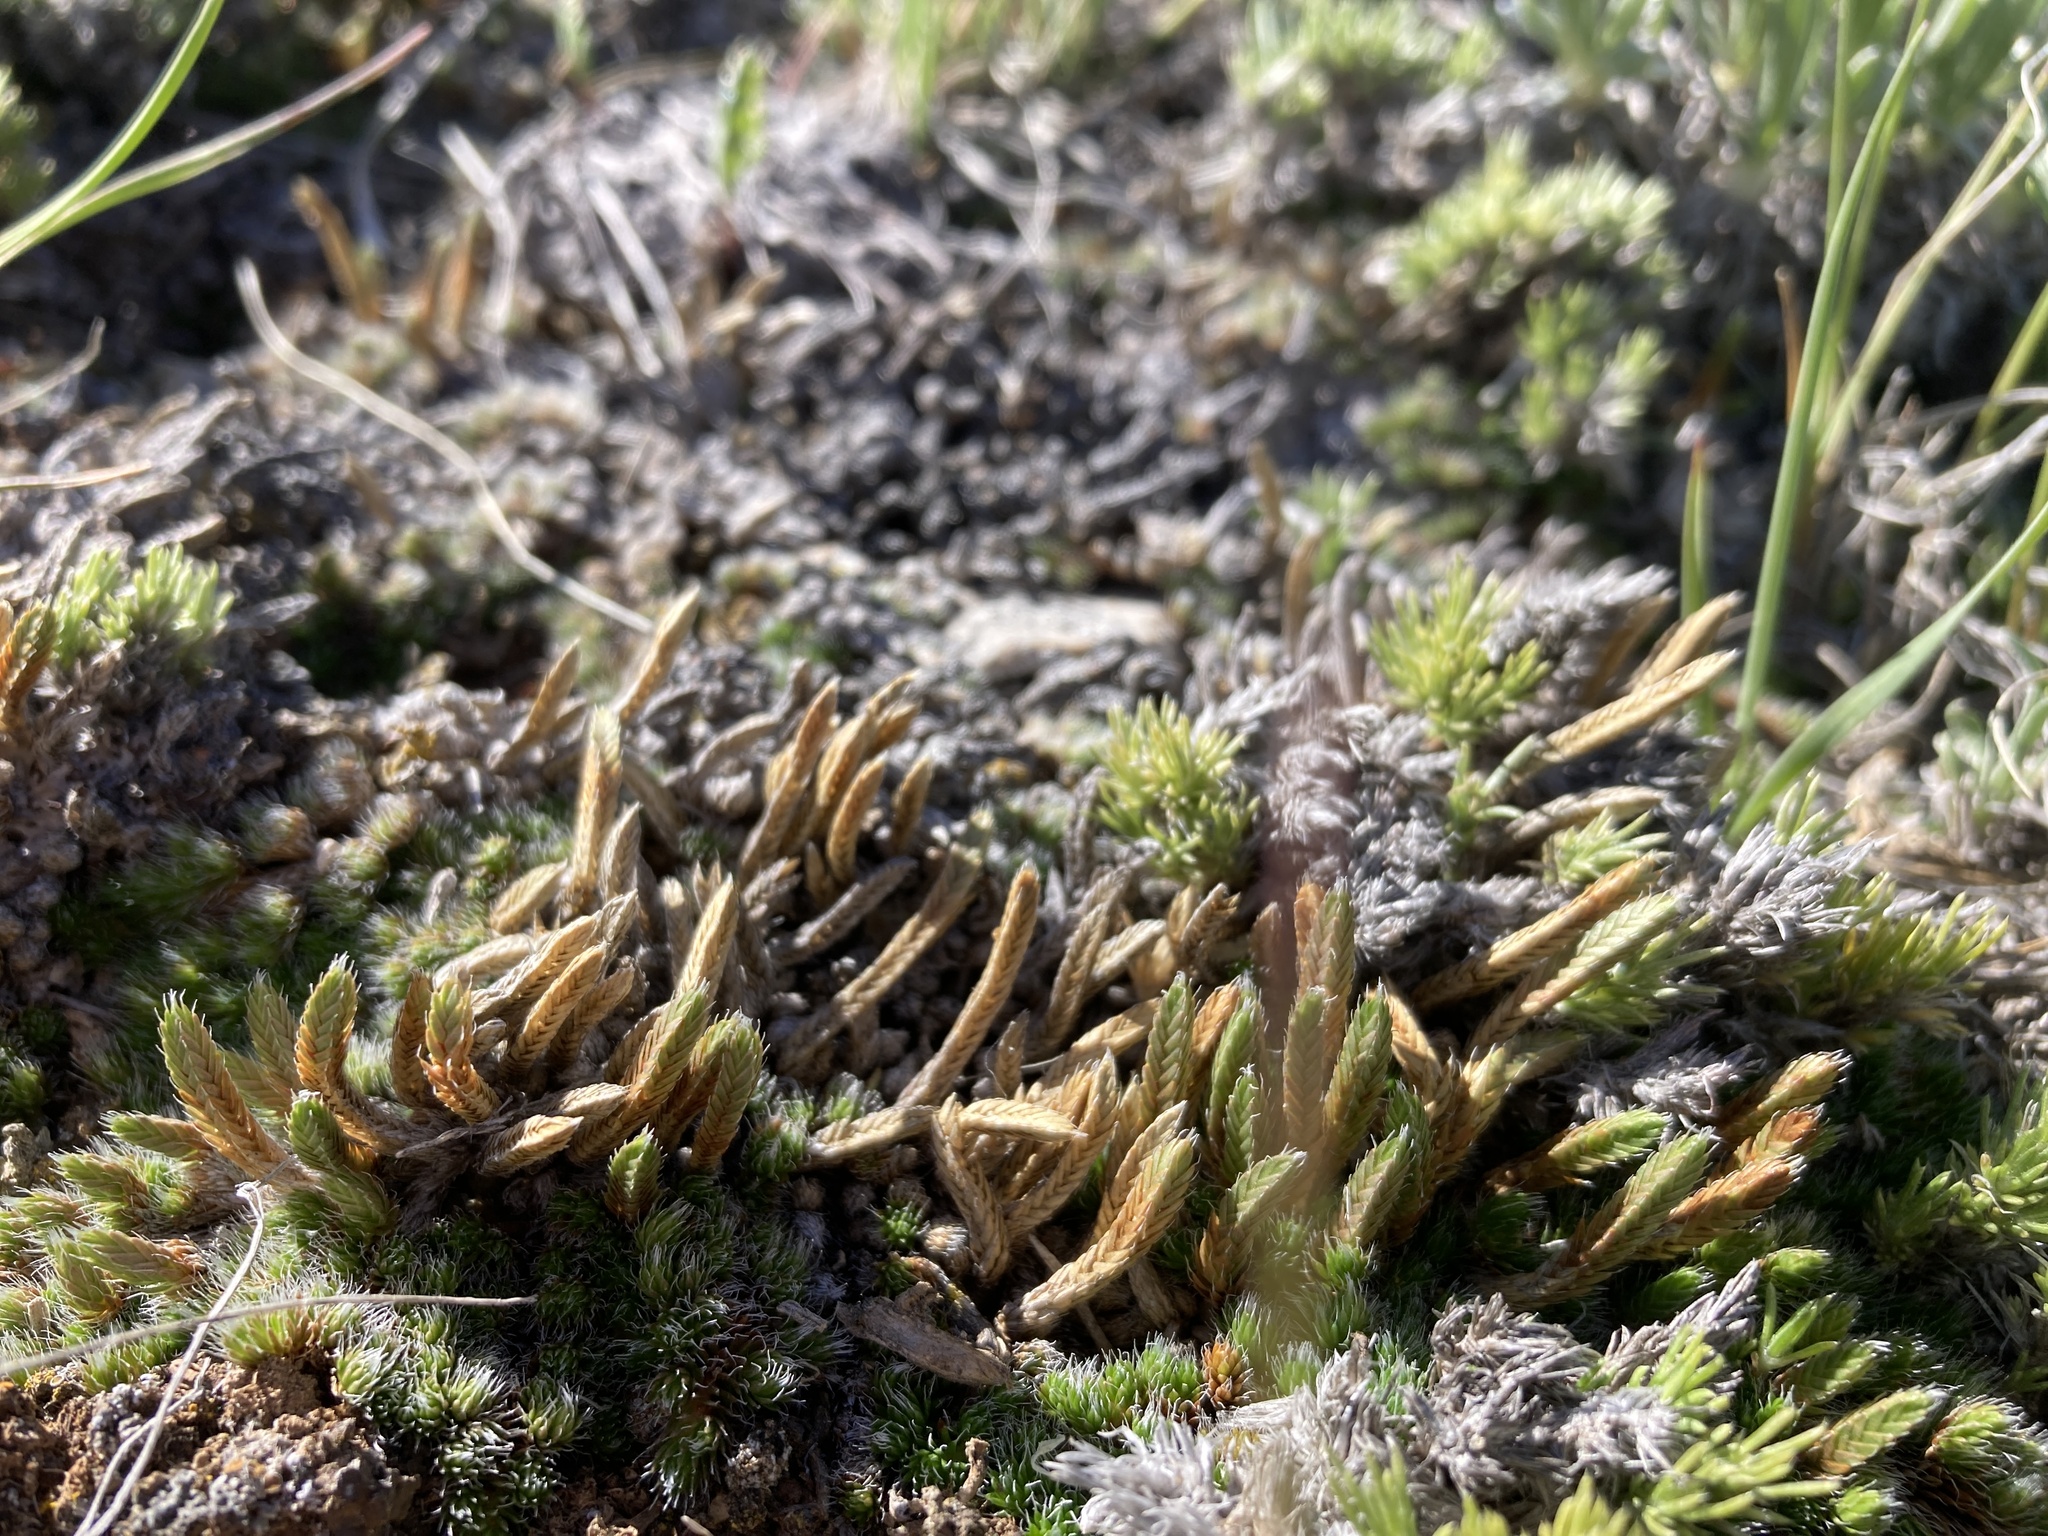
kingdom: Plantae
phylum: Tracheophyta
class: Lycopodiopsida
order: Selaginellales
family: Selaginellaceae
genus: Selaginella
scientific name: Selaginella densa
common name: Mountain spike-moss
